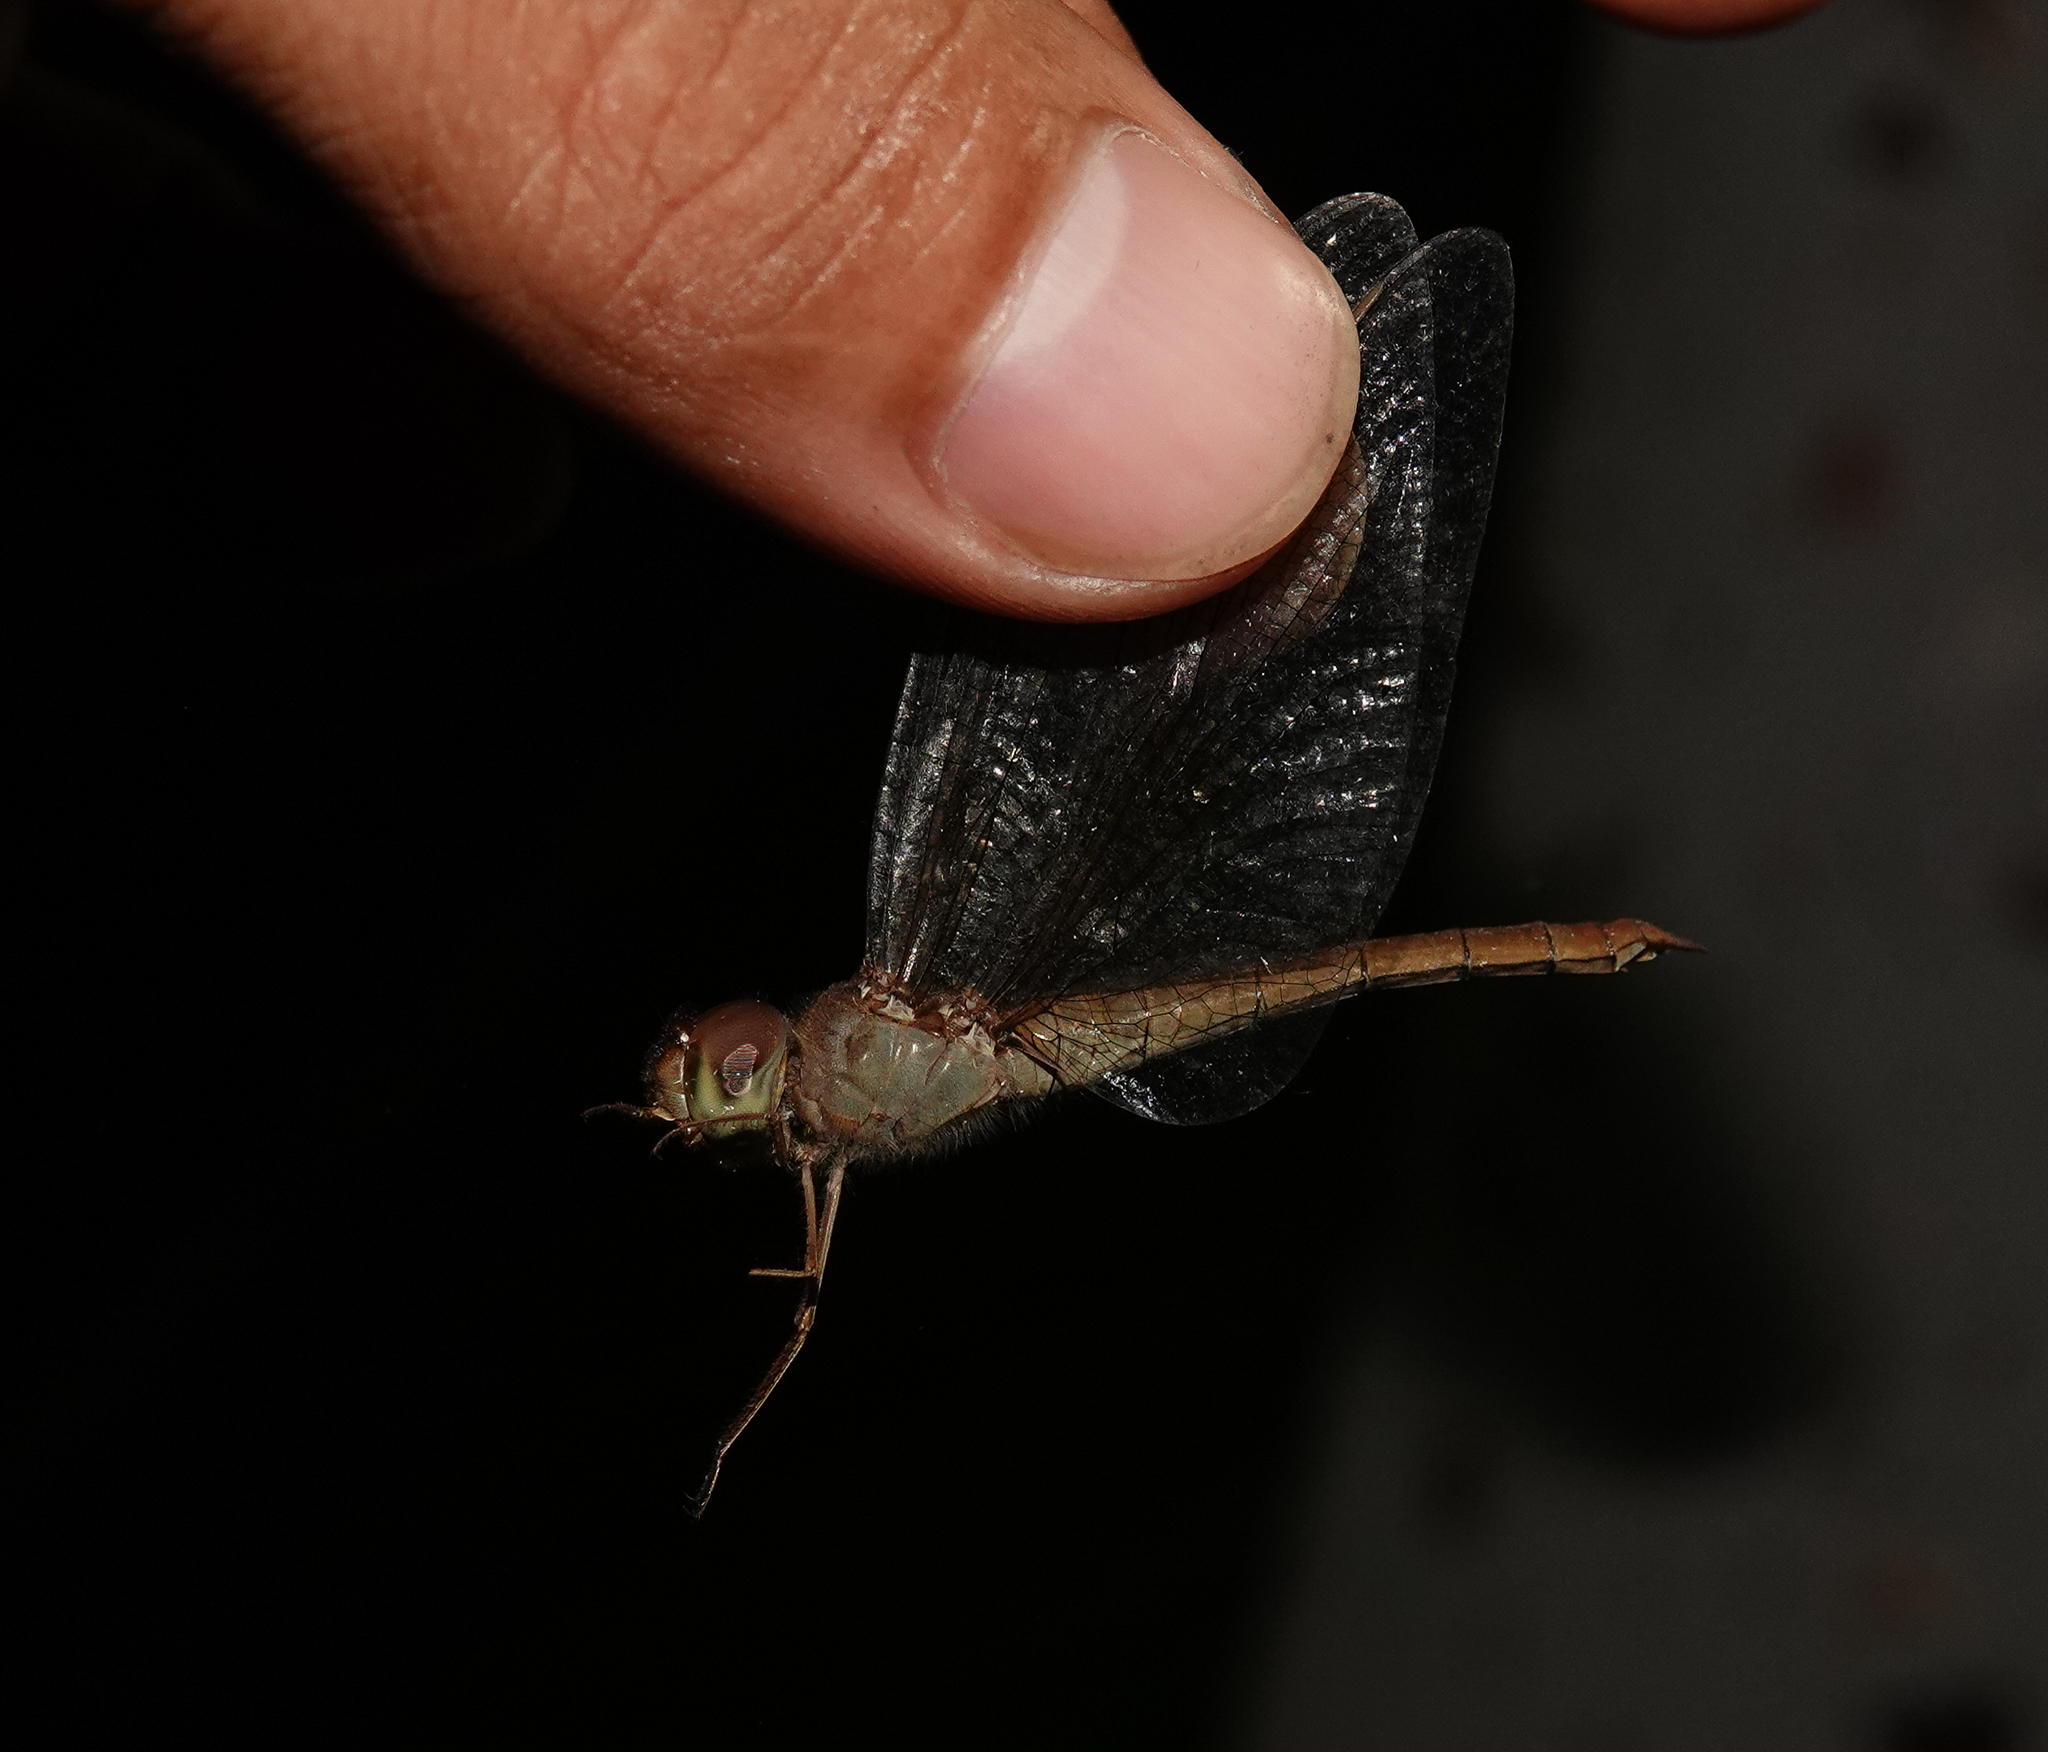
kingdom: Animalia
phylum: Arthropoda
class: Insecta
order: Odonata
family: Libellulidae
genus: Tholymis
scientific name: Tholymis tillarga
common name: Coral-tailed cloud wing
